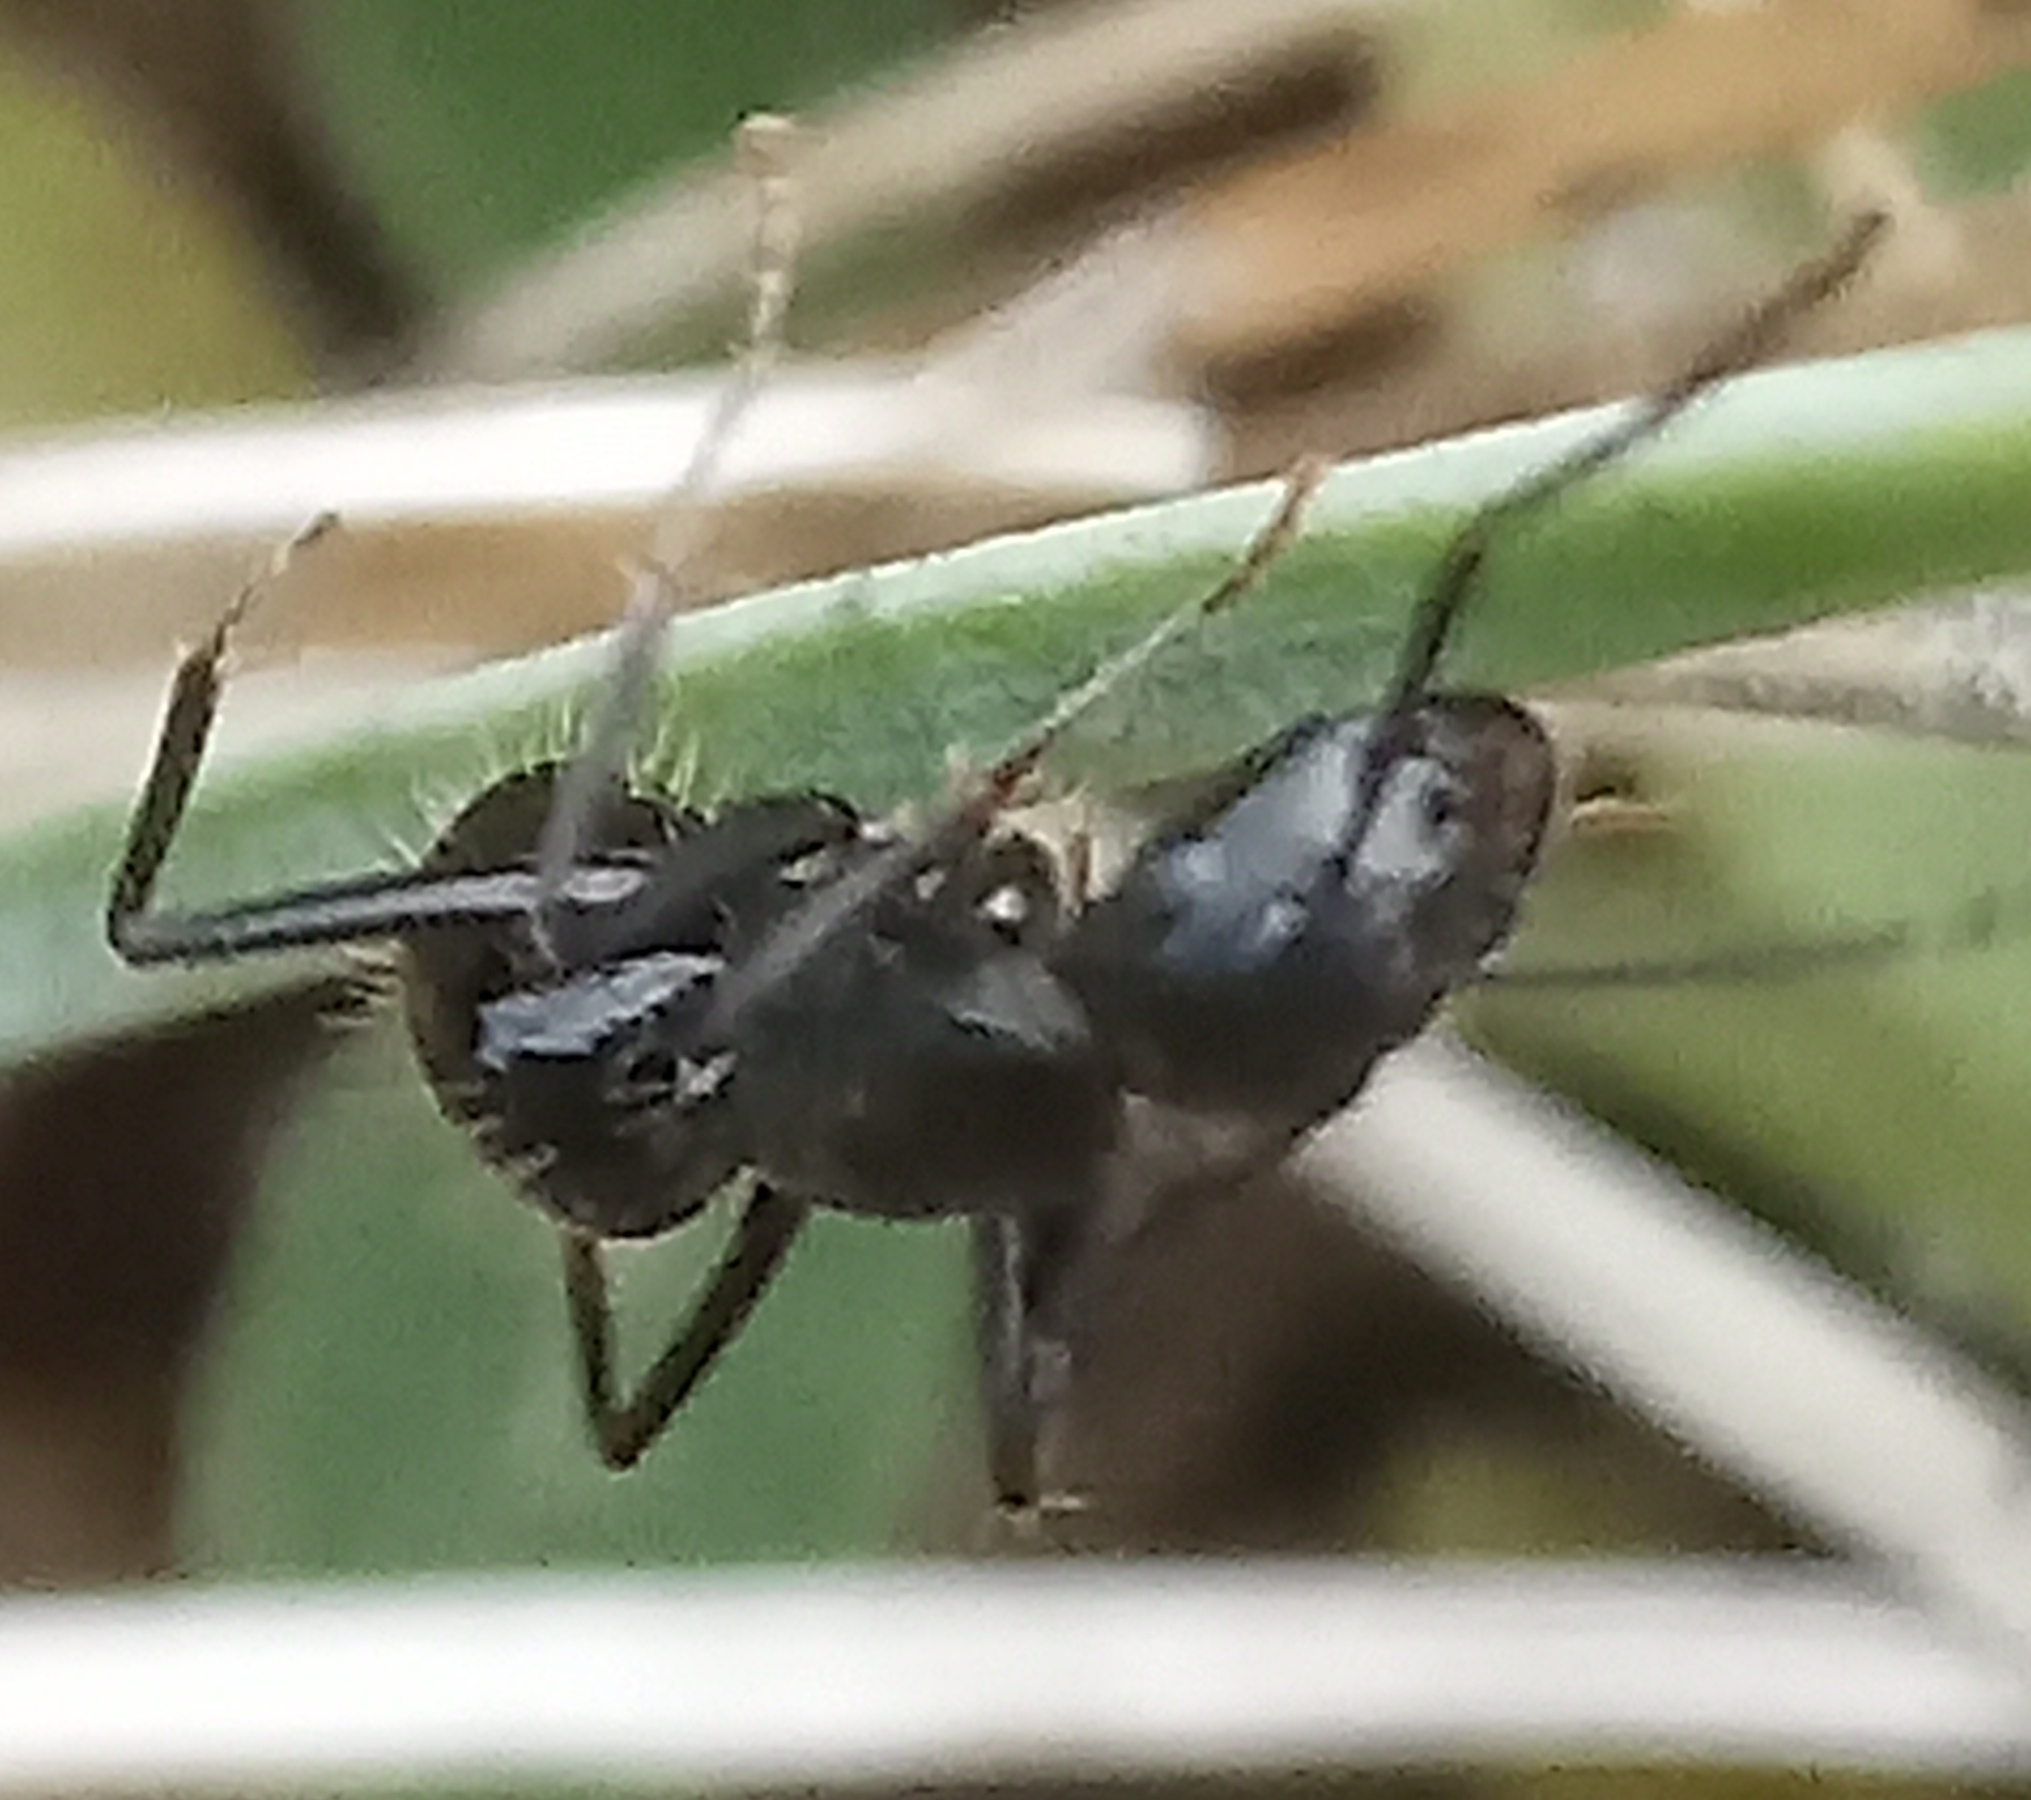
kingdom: Animalia
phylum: Arthropoda
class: Insecta
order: Hymenoptera
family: Formicidae
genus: Camponotus
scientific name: Camponotus vagus
